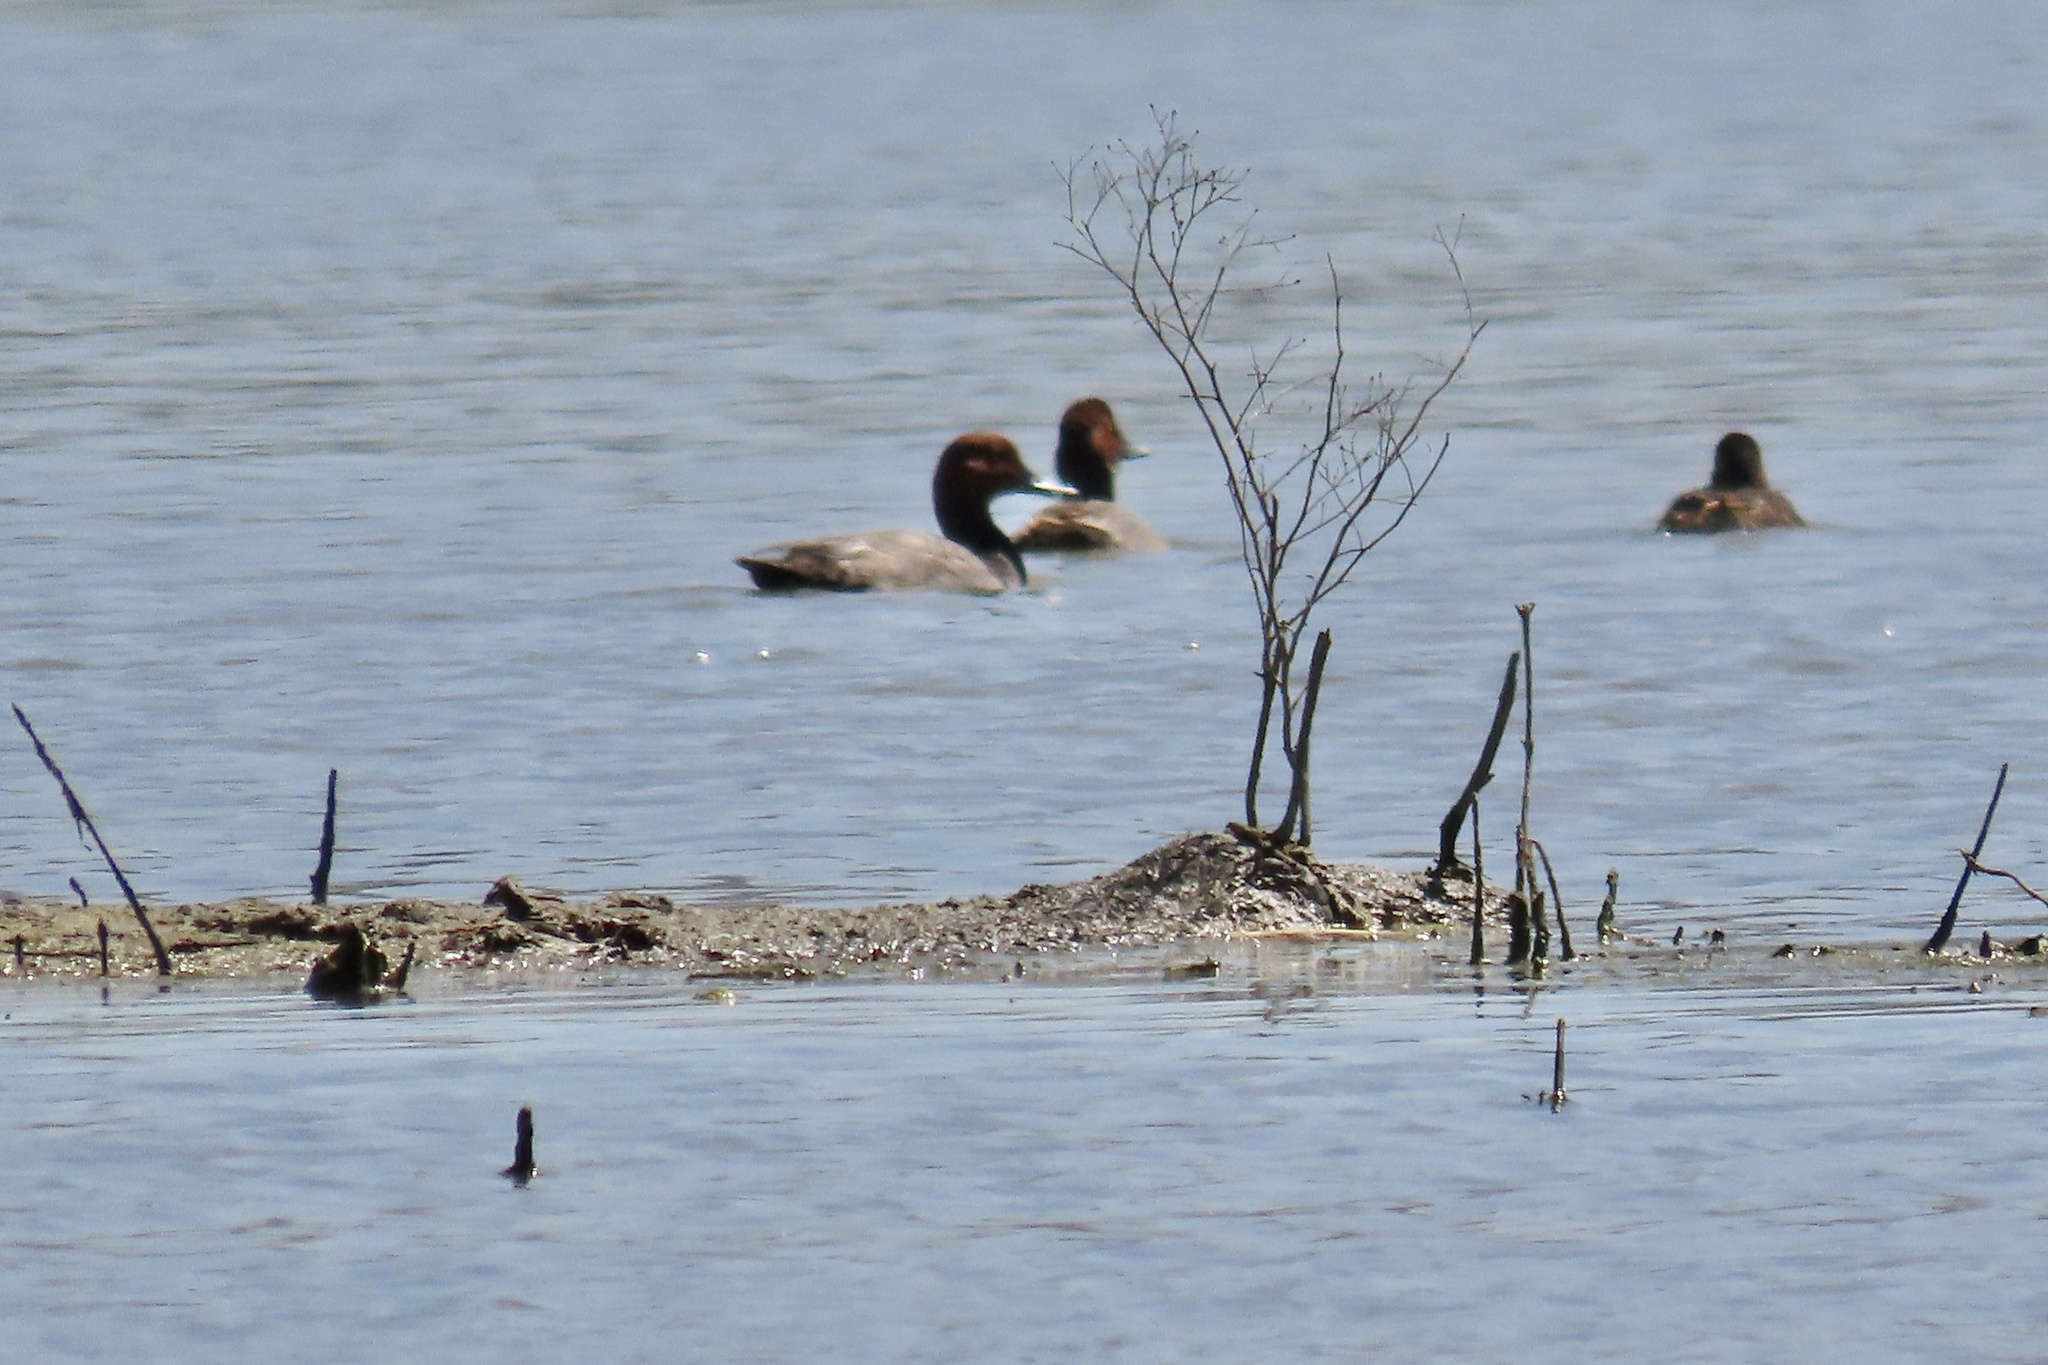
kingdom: Animalia
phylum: Chordata
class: Aves
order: Anseriformes
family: Anatidae
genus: Aythya
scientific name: Aythya americana
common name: Redhead
